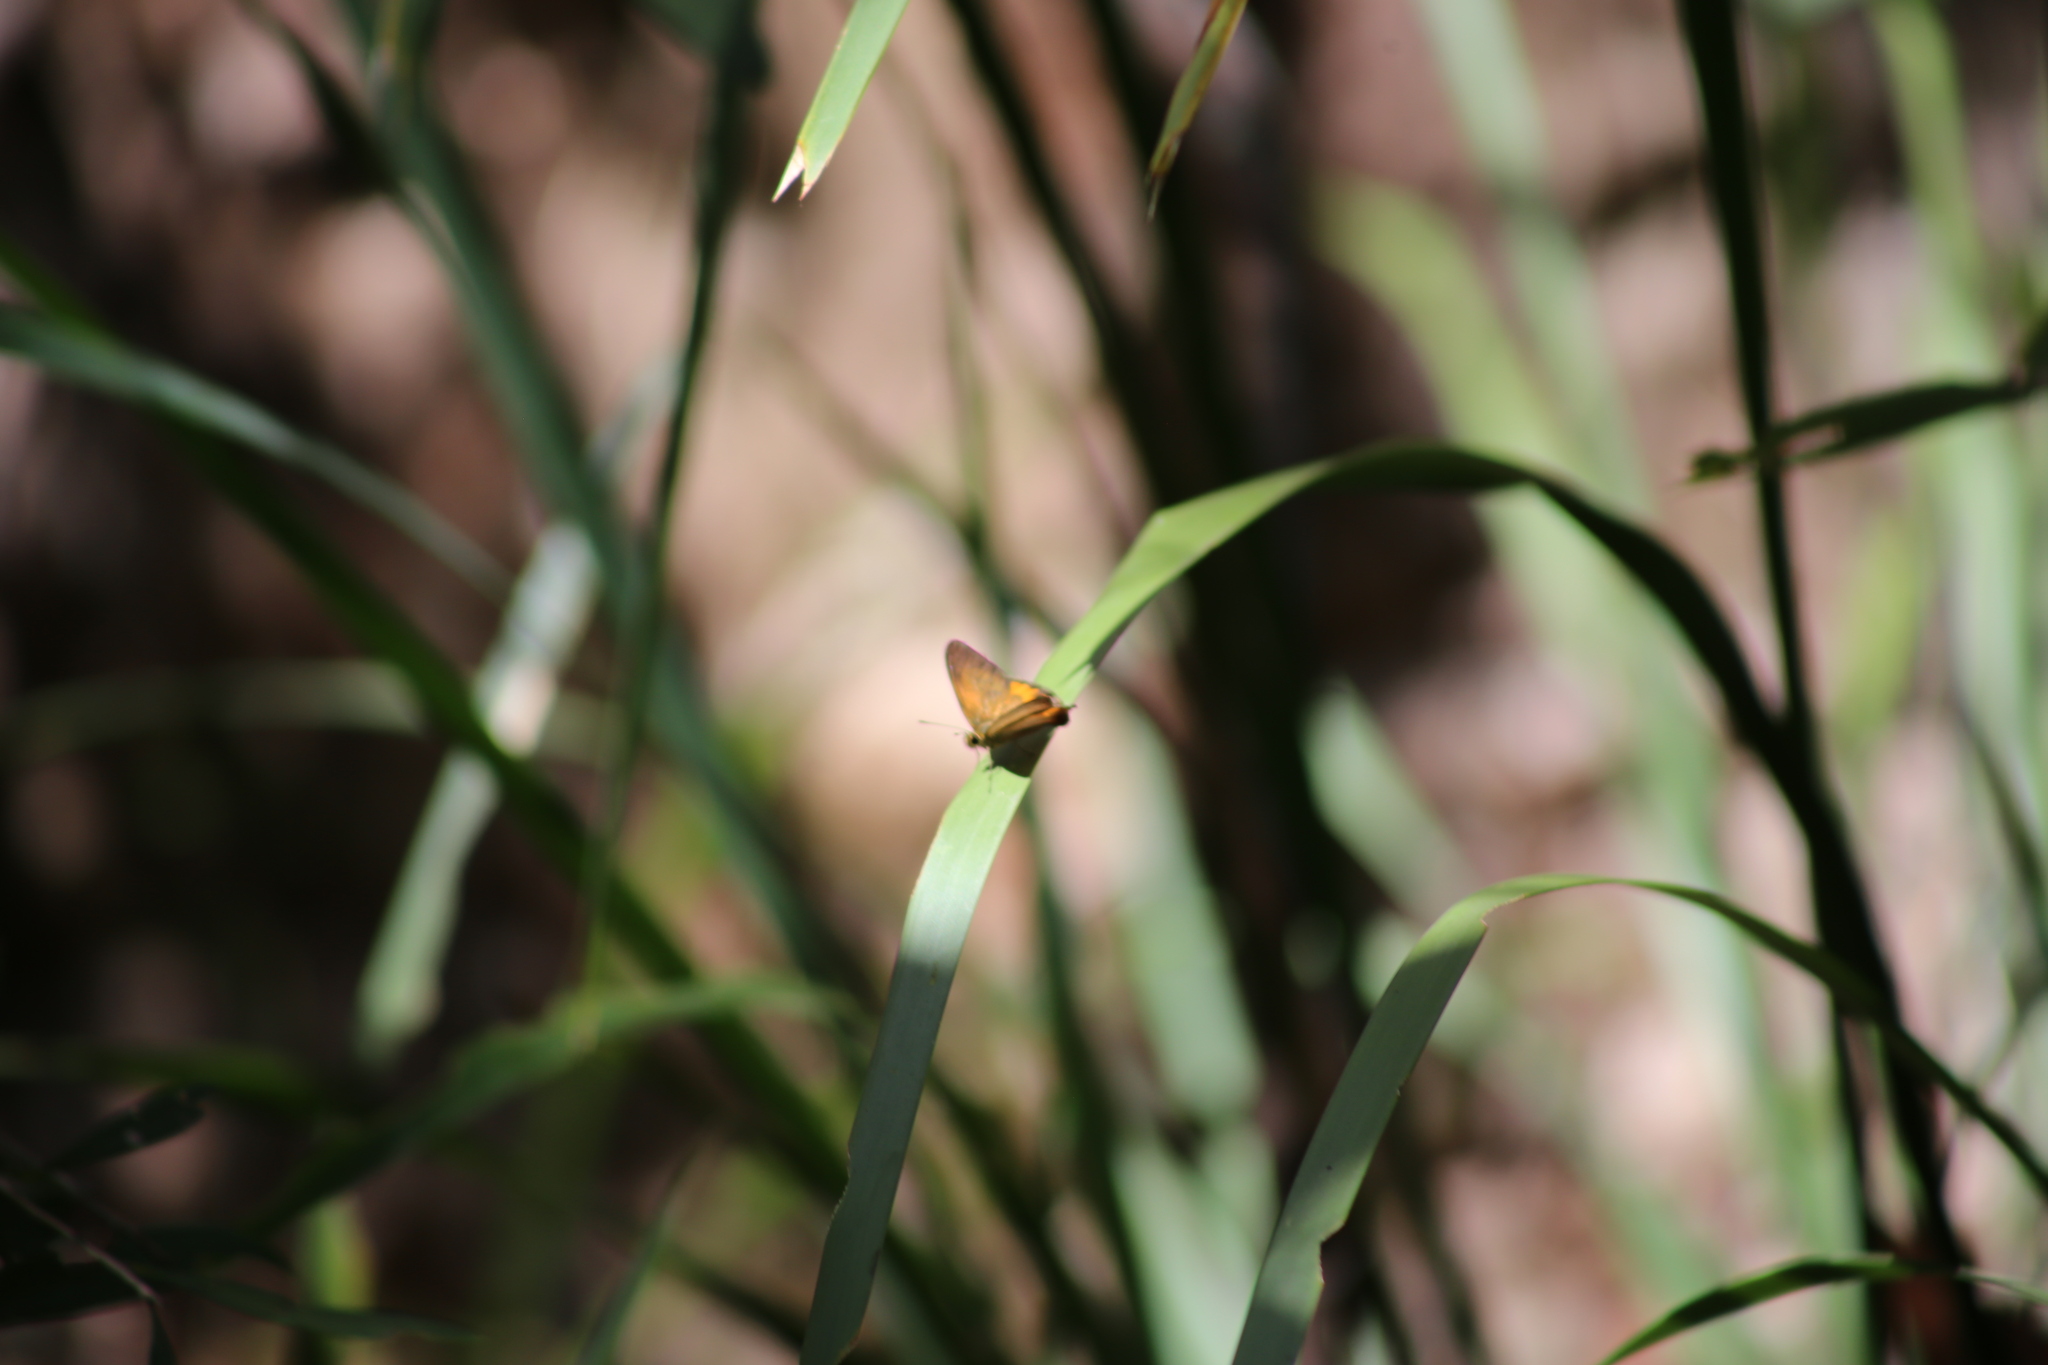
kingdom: Animalia
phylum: Arthropoda
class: Insecta
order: Lepidoptera
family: Nymphalidae
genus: Hypocysta
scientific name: Hypocysta metirius
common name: Brown ringlet
